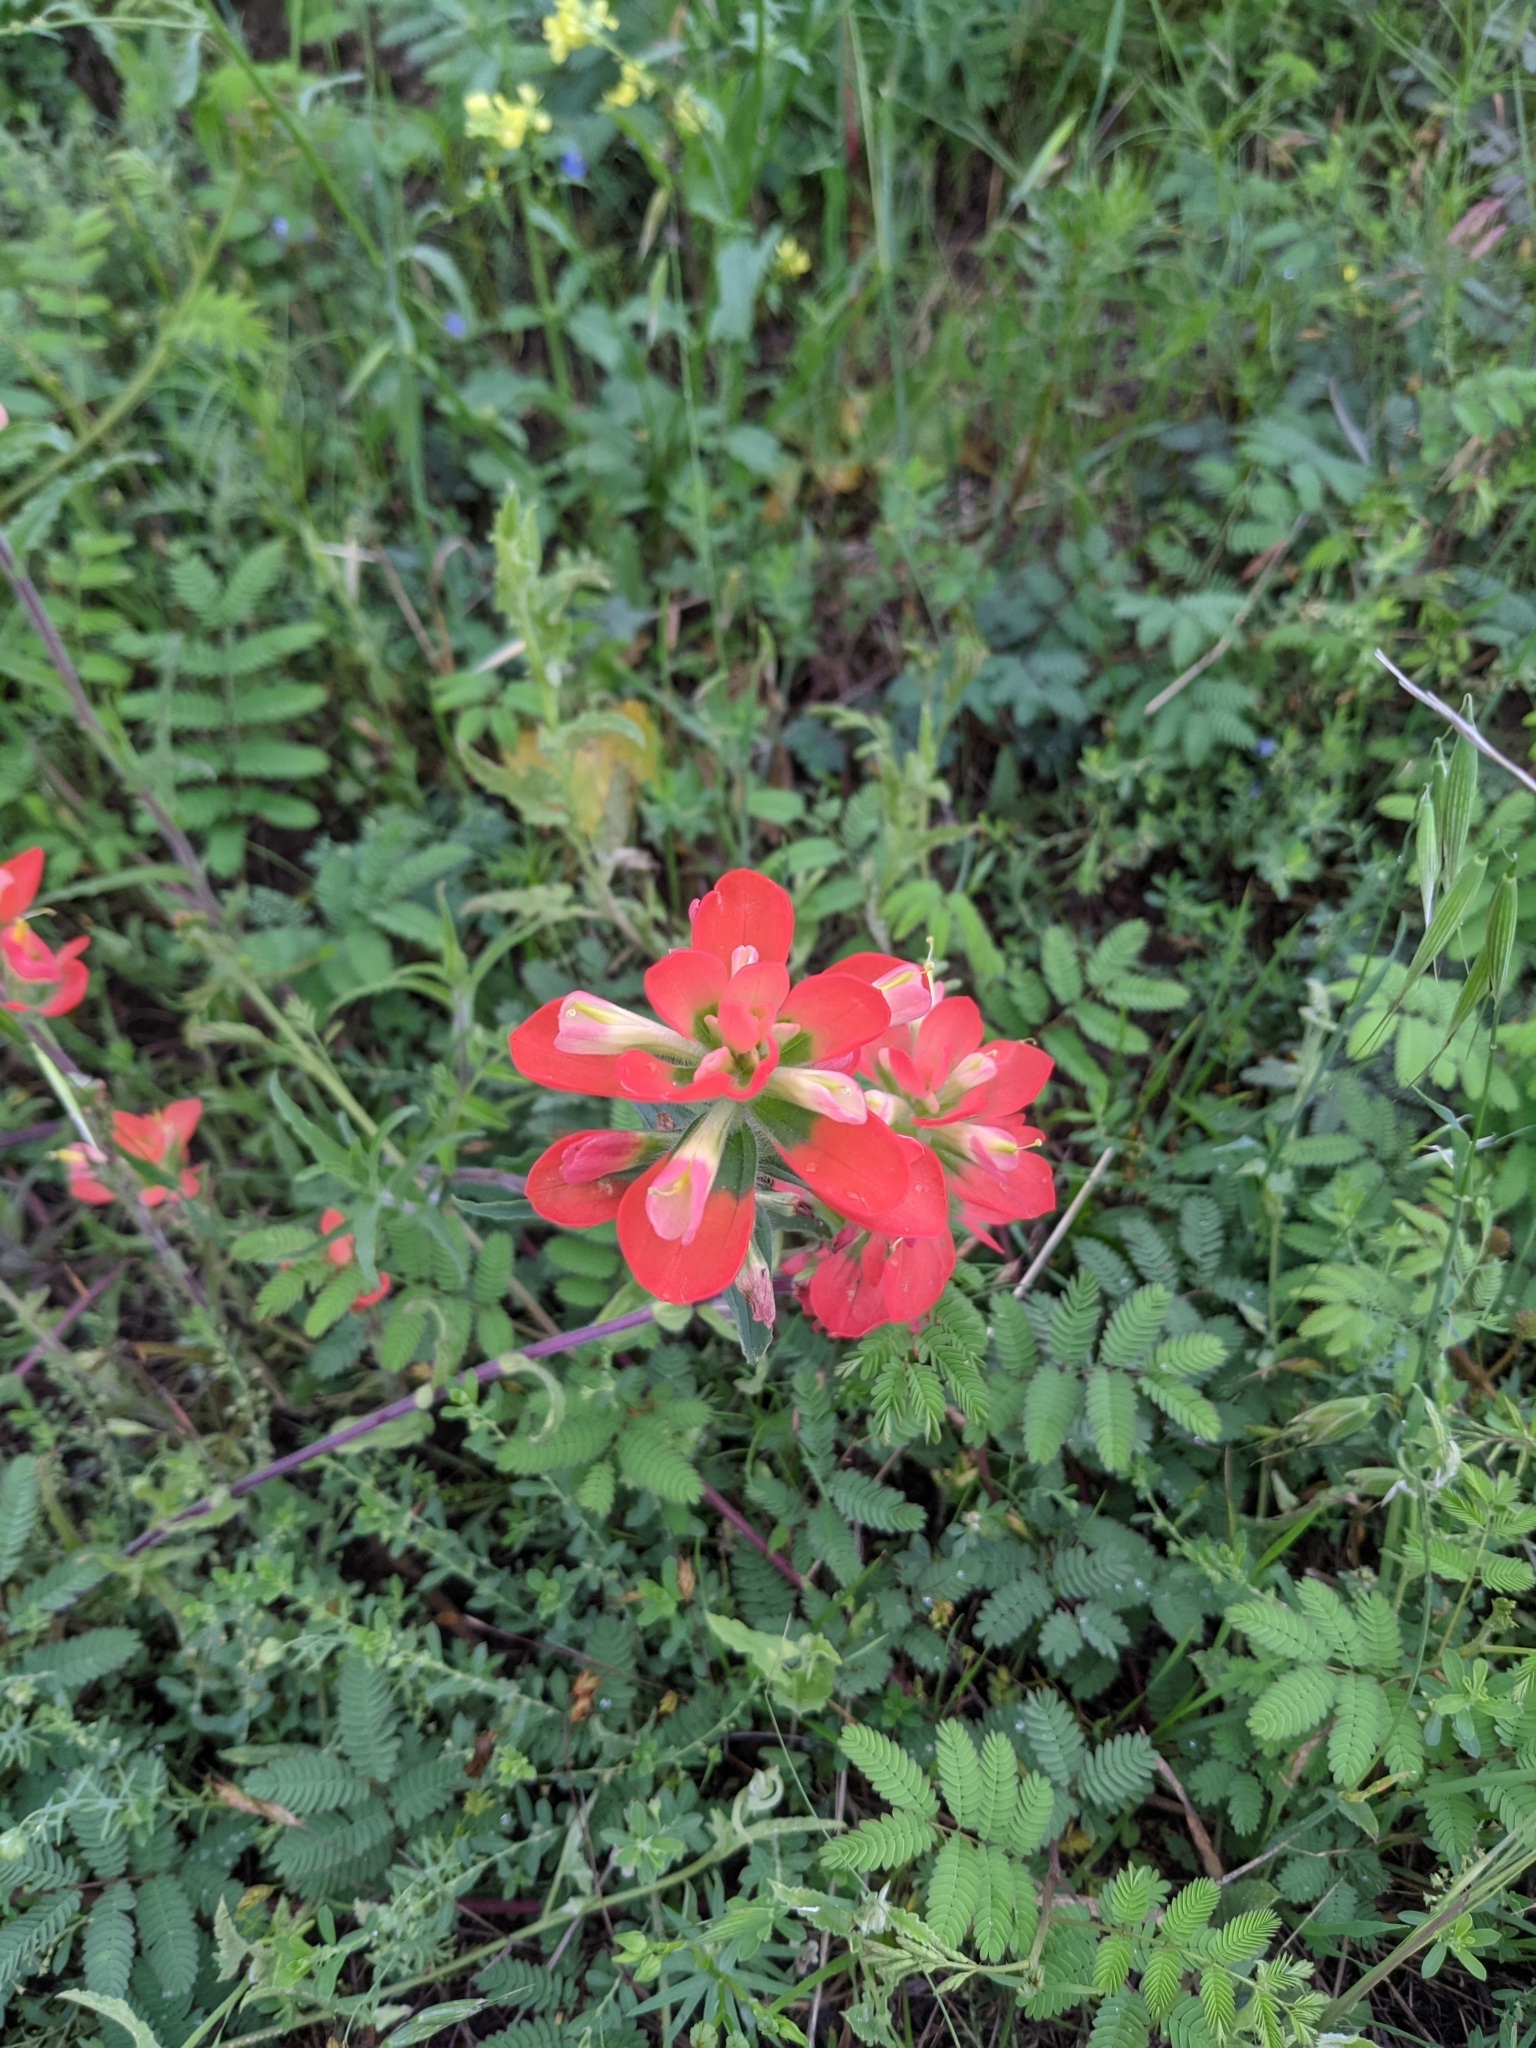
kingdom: Plantae
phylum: Tracheophyta
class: Magnoliopsida
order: Lamiales
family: Orobanchaceae
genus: Castilleja
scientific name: Castilleja indivisa
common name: Texas paintbrush
